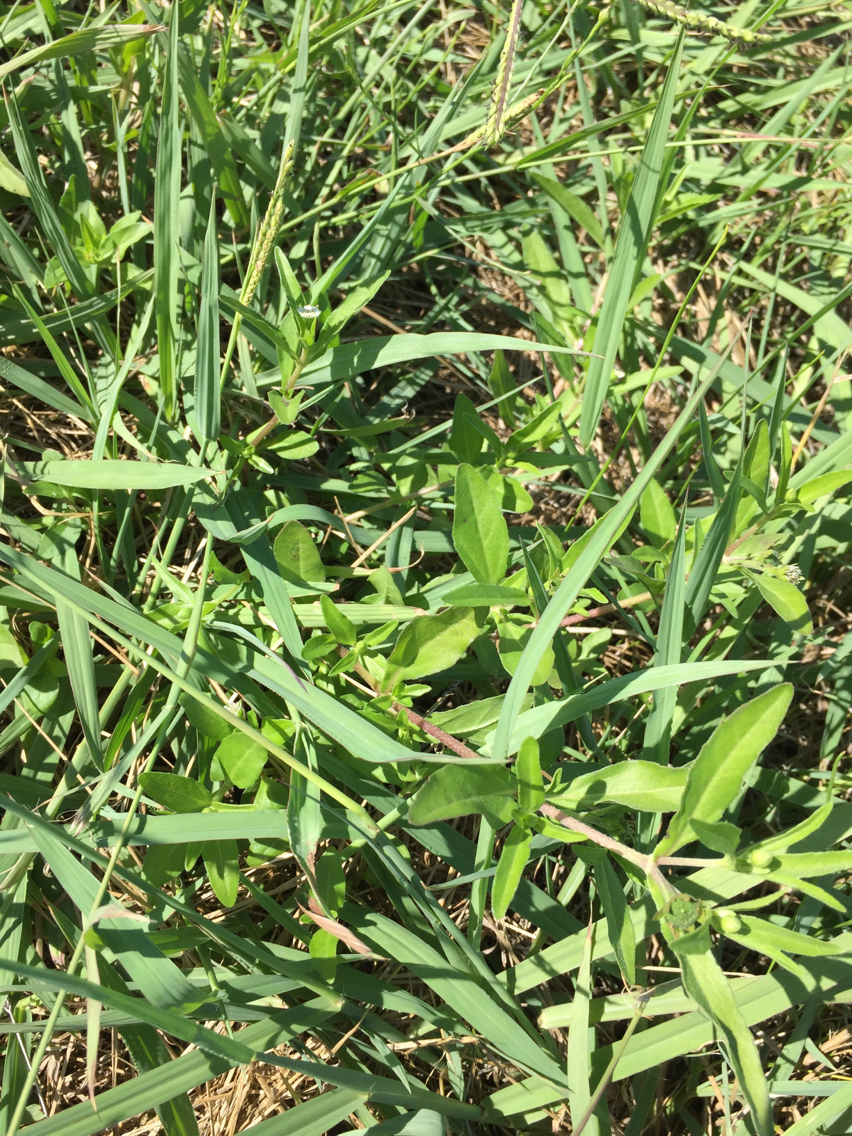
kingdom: Plantae
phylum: Tracheophyta
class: Magnoliopsida
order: Asterales
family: Asteraceae
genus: Eclipta
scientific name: Eclipta prostrata
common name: False daisy
